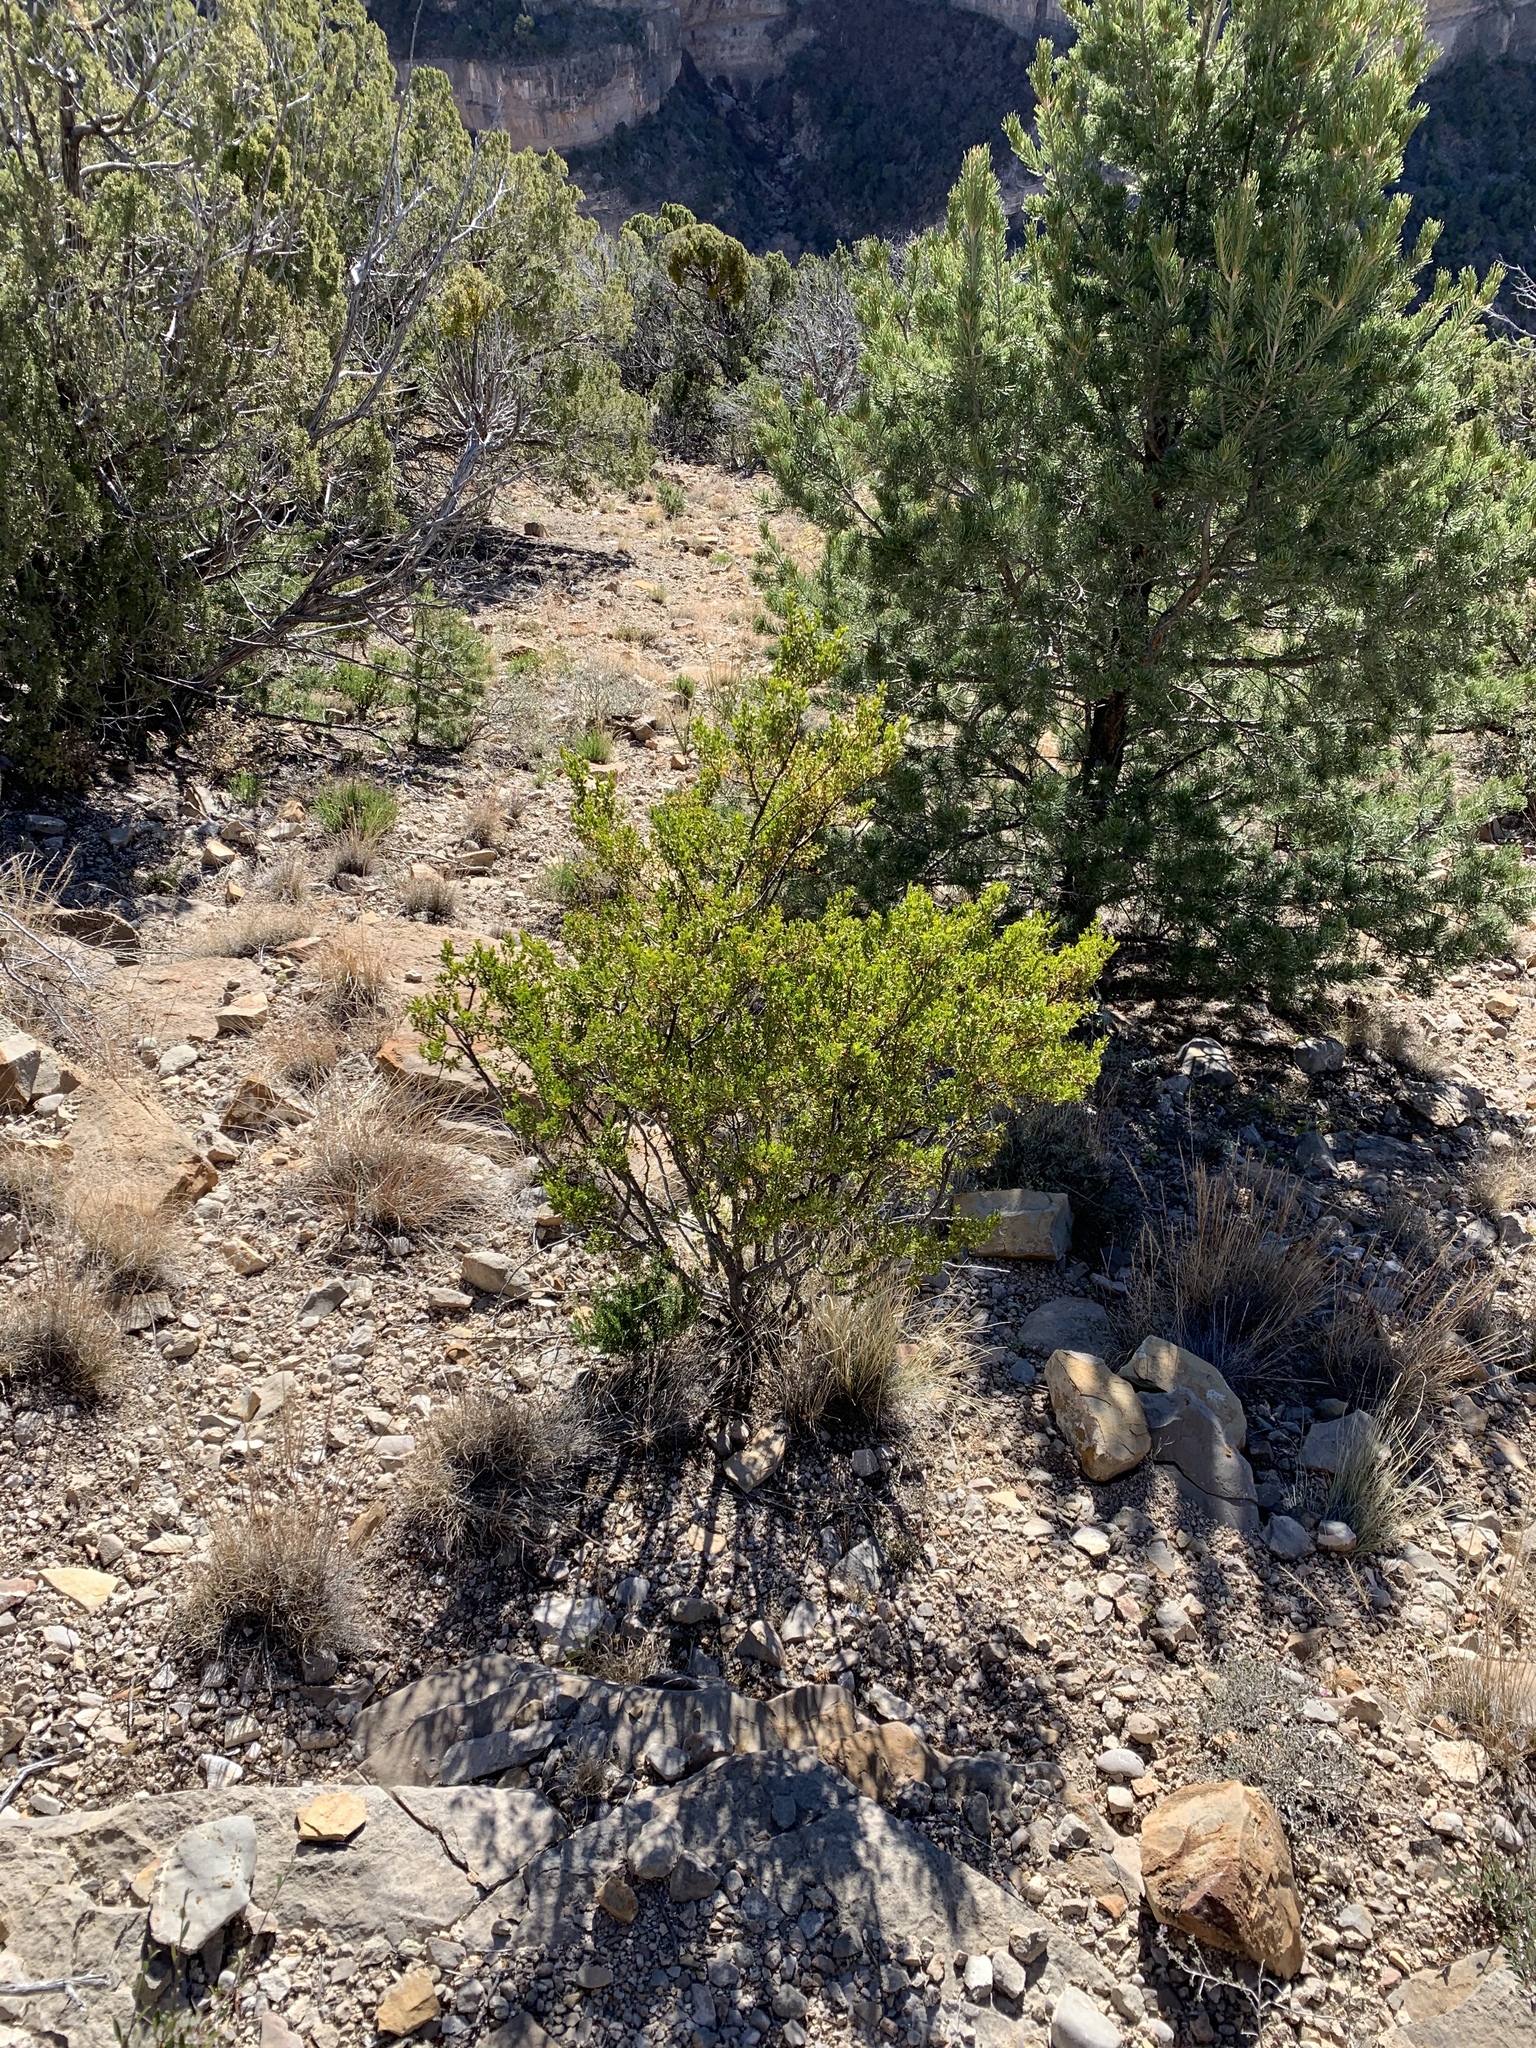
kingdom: Plantae
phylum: Tracheophyta
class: Magnoliopsida
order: Zygophyllales
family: Zygophyllaceae
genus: Larrea
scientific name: Larrea tridentata
